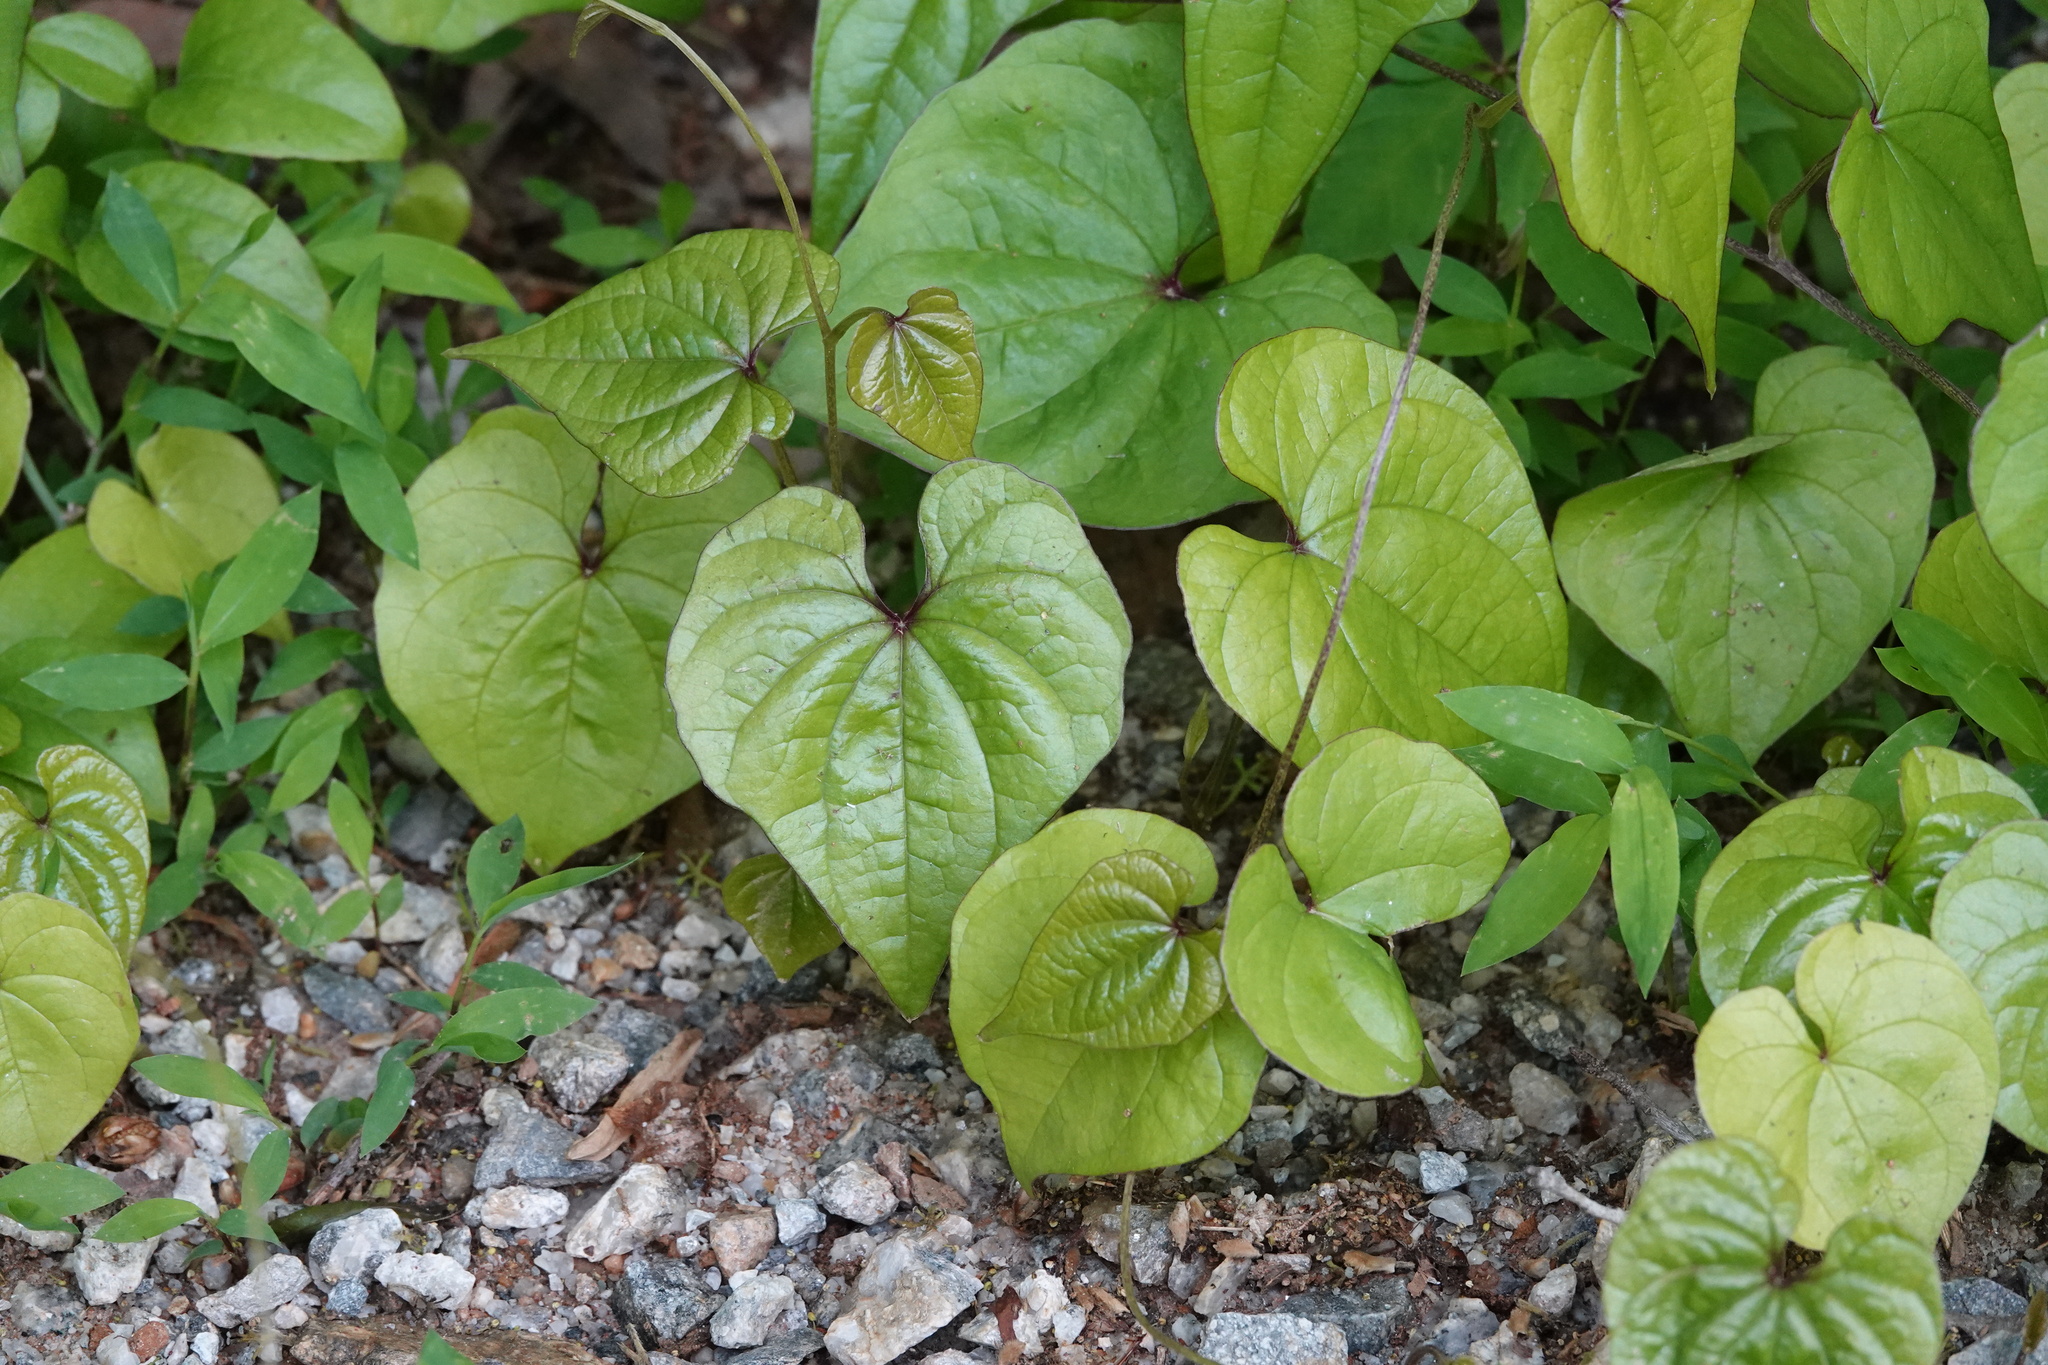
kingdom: Plantae
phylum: Tracheophyta
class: Liliopsida
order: Dioscoreales
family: Dioscoreaceae
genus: Dioscorea
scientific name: Dioscorea polystachya
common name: Chinese yam
